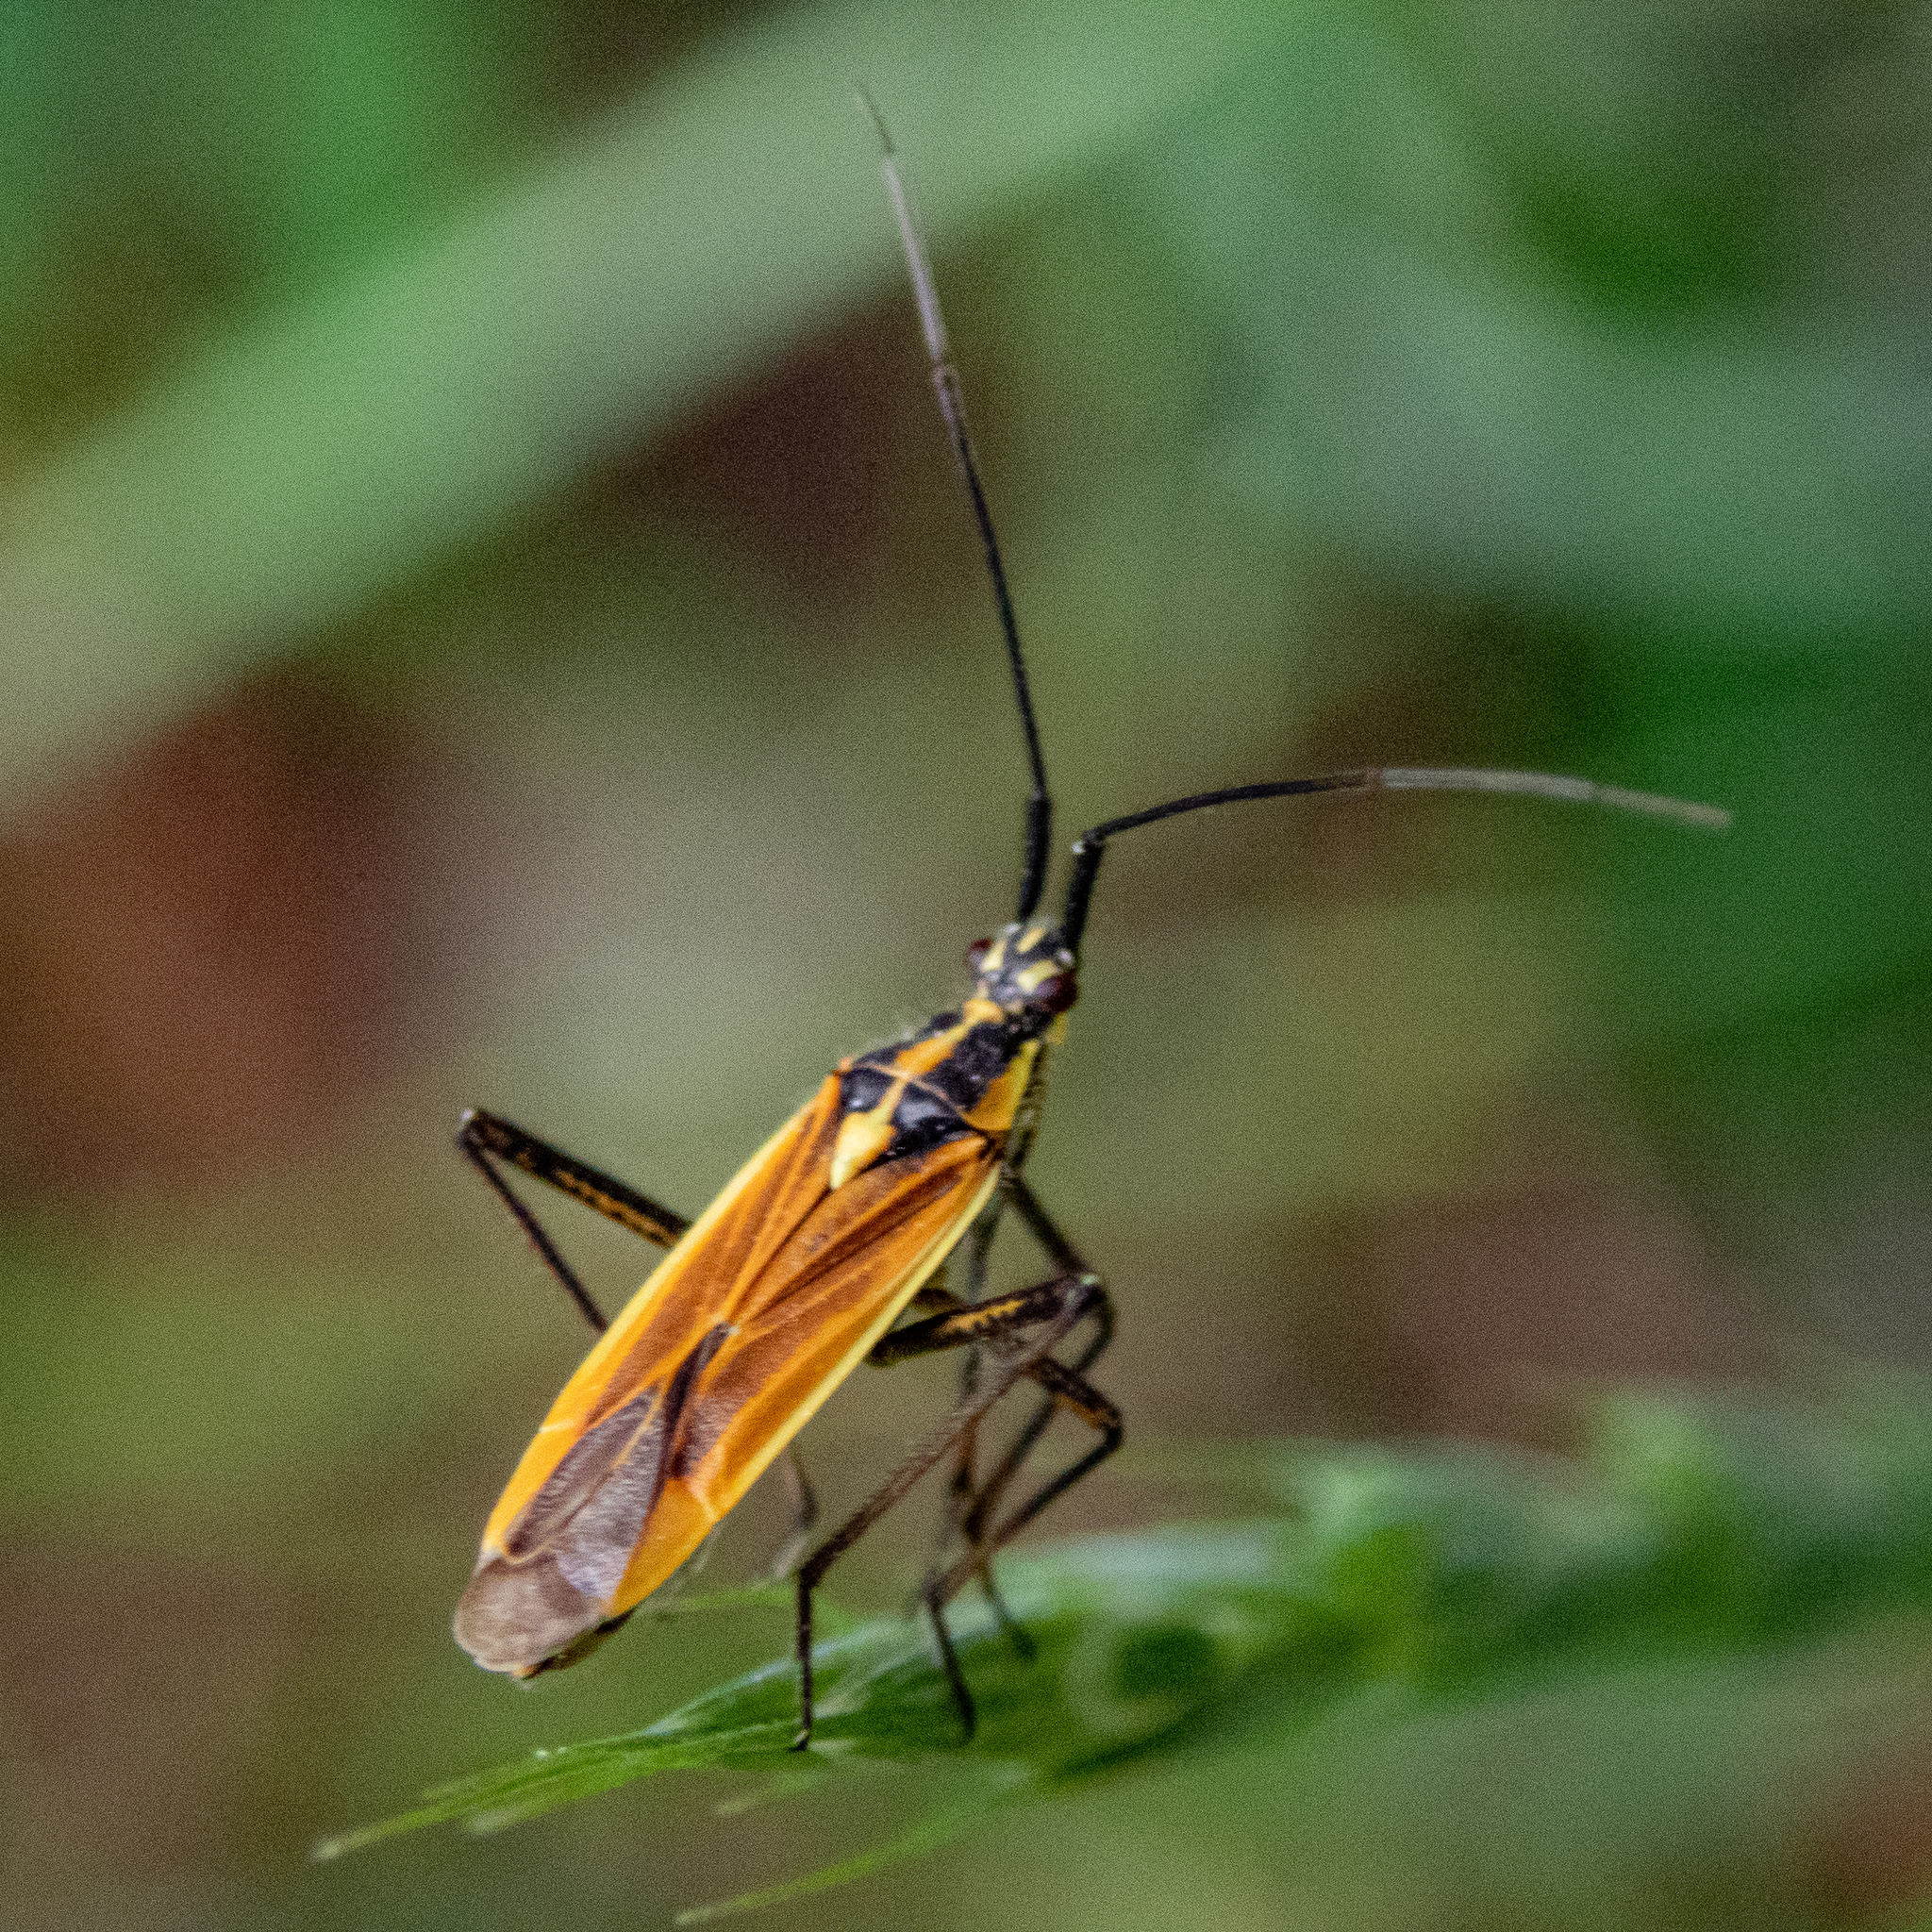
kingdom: Animalia
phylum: Arthropoda
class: Insecta
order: Hemiptera
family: Miridae
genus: Leptopterna
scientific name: Leptopterna dolabrata
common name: Meadow plant bug
